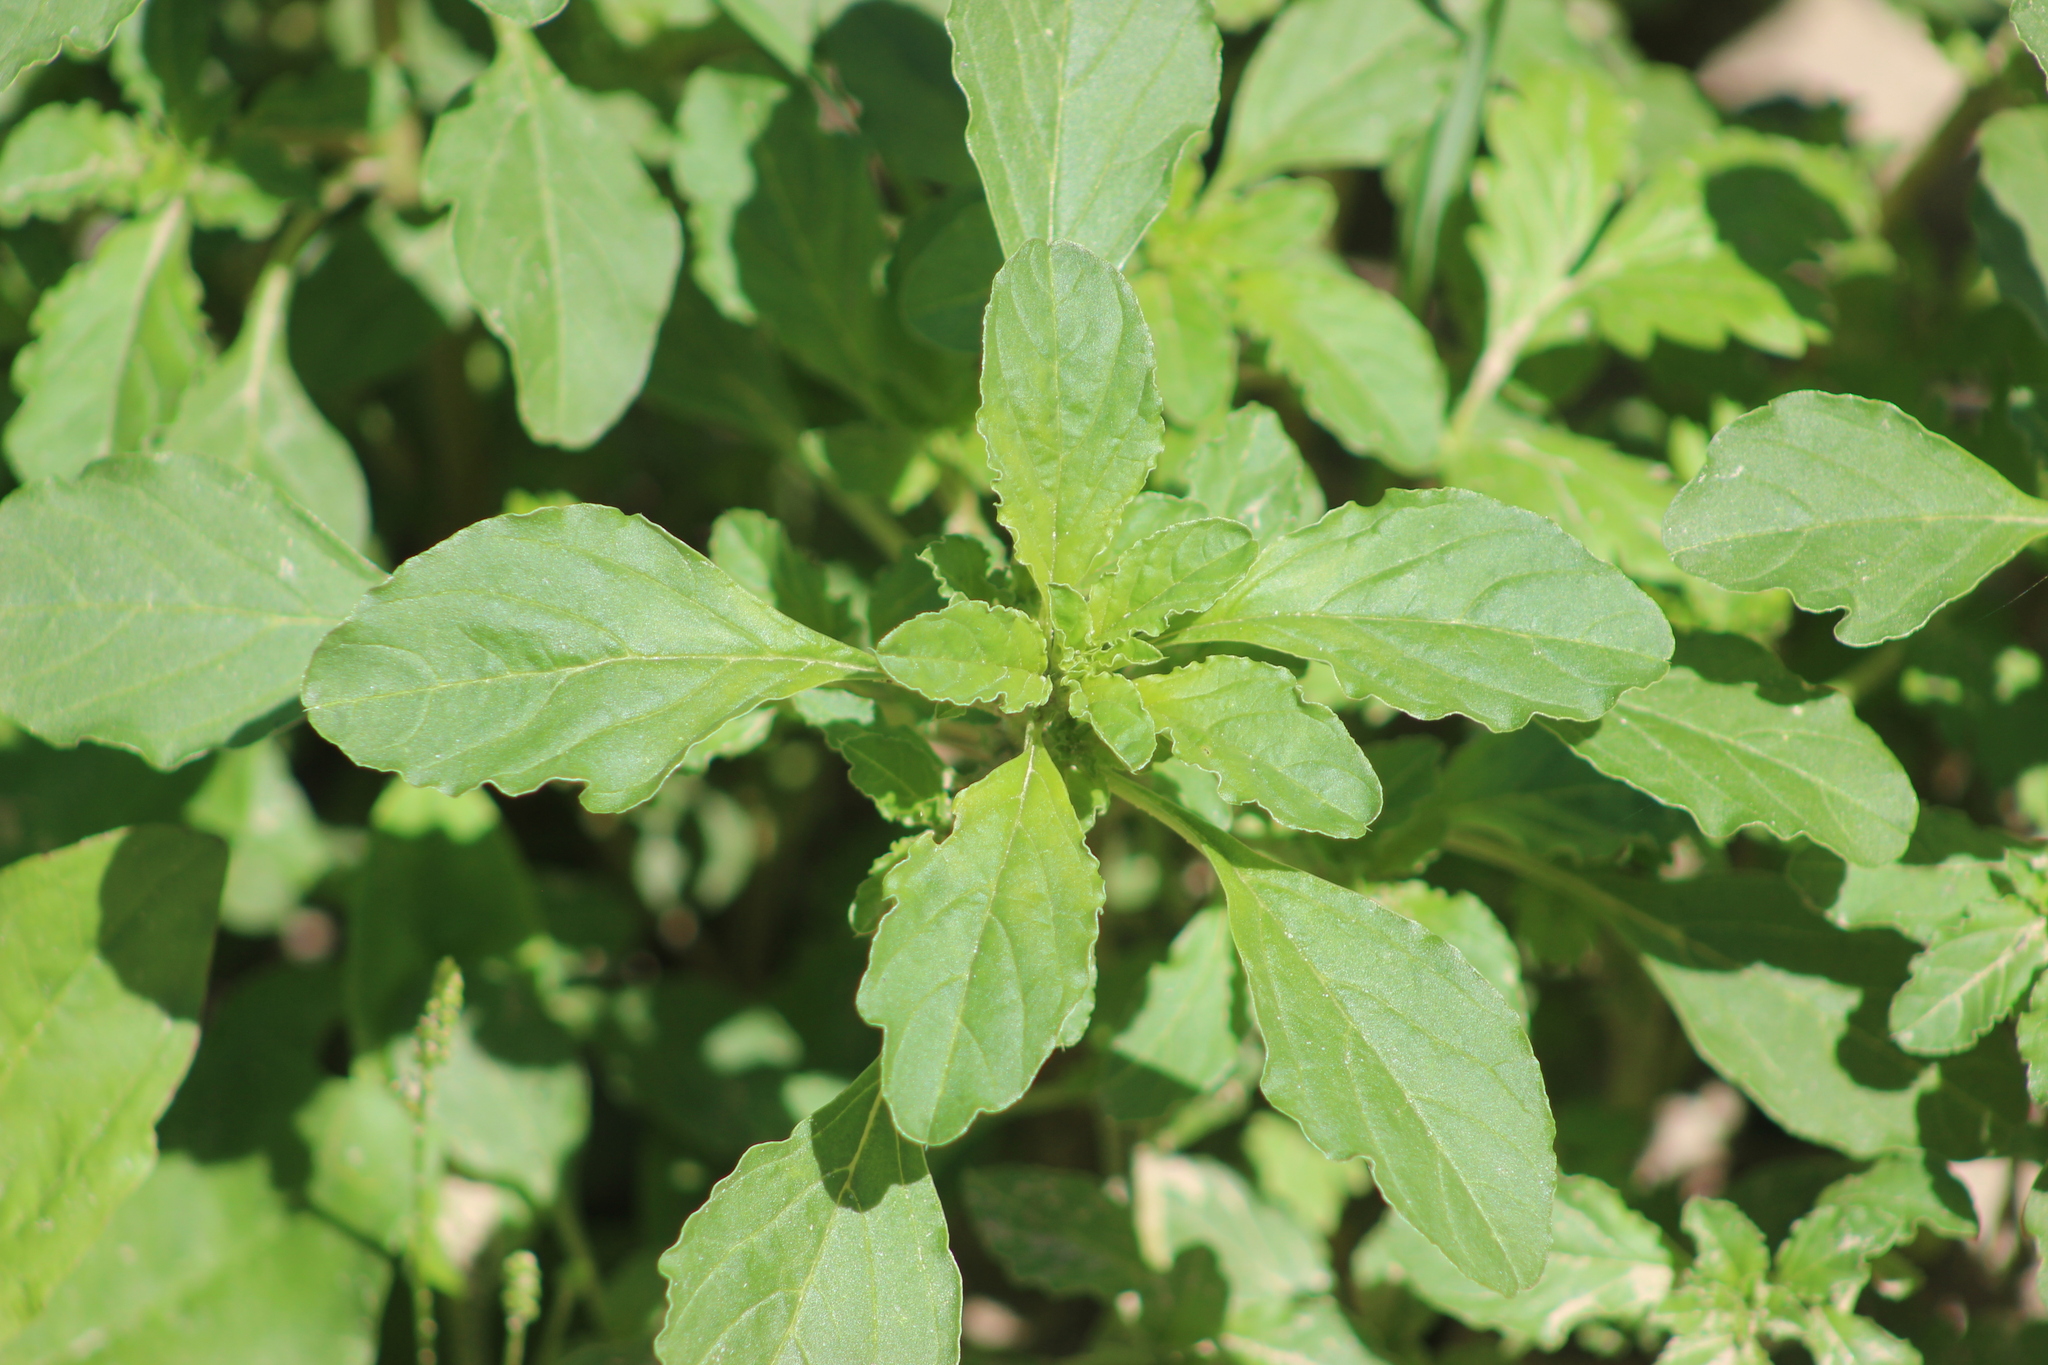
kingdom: Plantae
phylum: Tracheophyta
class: Magnoliopsida
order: Caryophyllales
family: Amaranthaceae
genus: Amaranthus
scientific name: Amaranthus albus
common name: White pigweed
